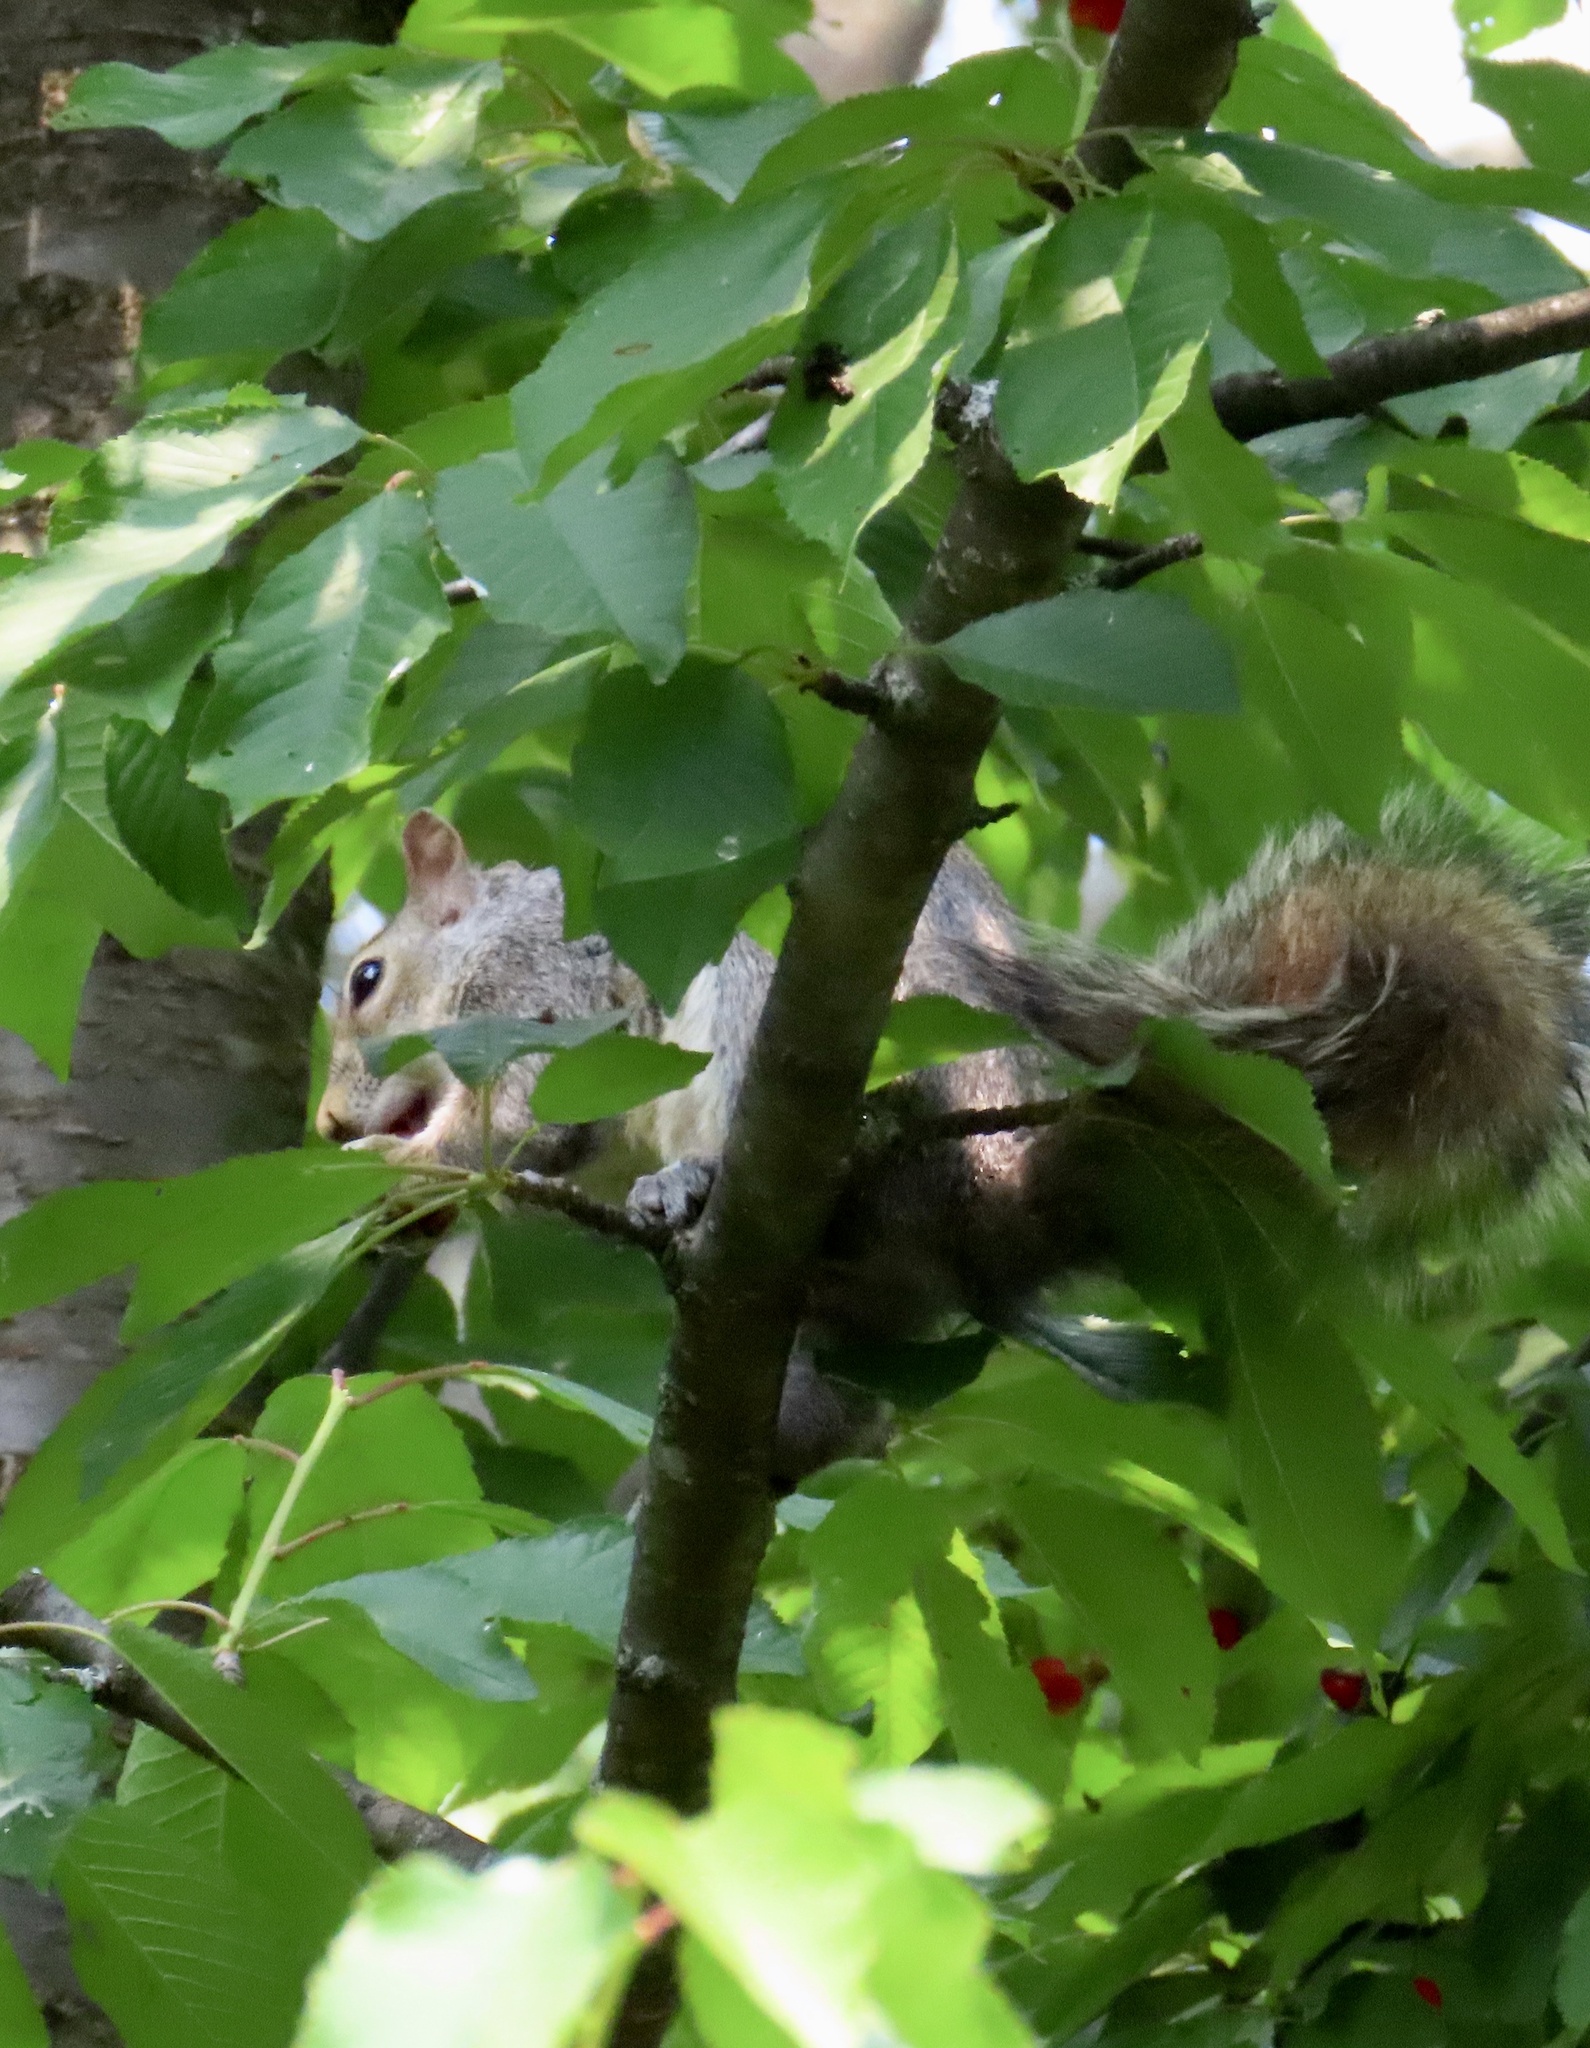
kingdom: Animalia
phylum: Chordata
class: Mammalia
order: Rodentia
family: Sciuridae
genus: Sciurus
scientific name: Sciurus carolinensis
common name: Eastern gray squirrel
